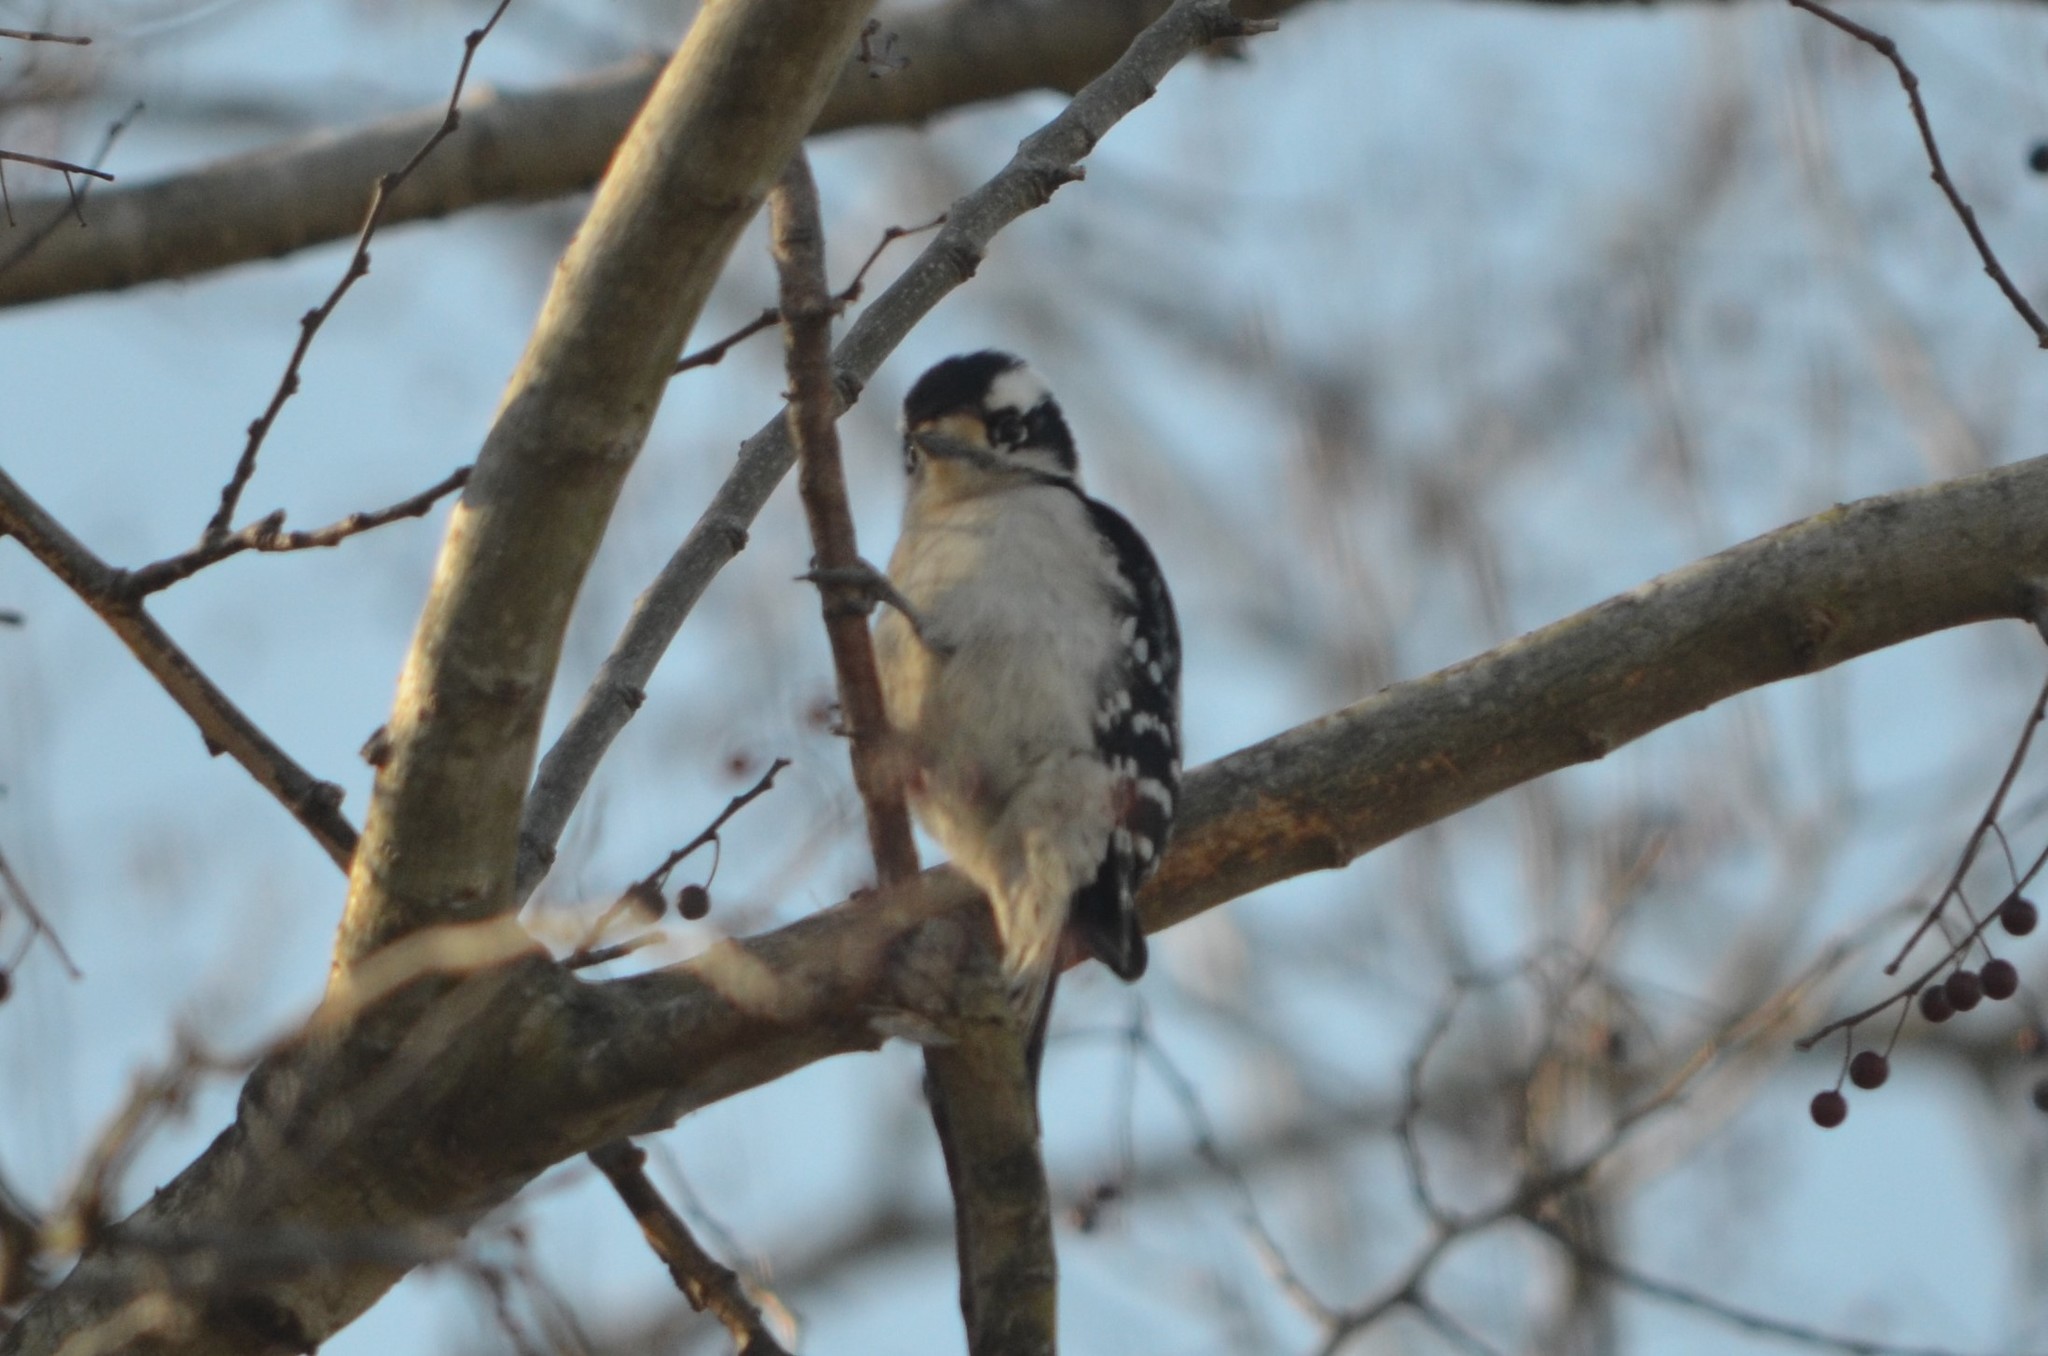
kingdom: Animalia
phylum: Chordata
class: Aves
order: Piciformes
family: Picidae
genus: Dryobates
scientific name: Dryobates pubescens
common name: Downy woodpecker
